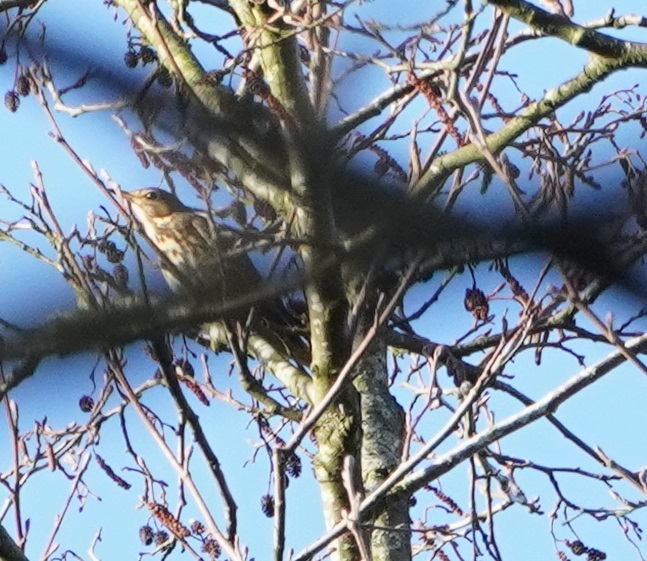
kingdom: Animalia
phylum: Chordata
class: Aves
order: Passeriformes
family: Turdidae
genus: Turdus
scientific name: Turdus philomelos
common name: Song thrush
